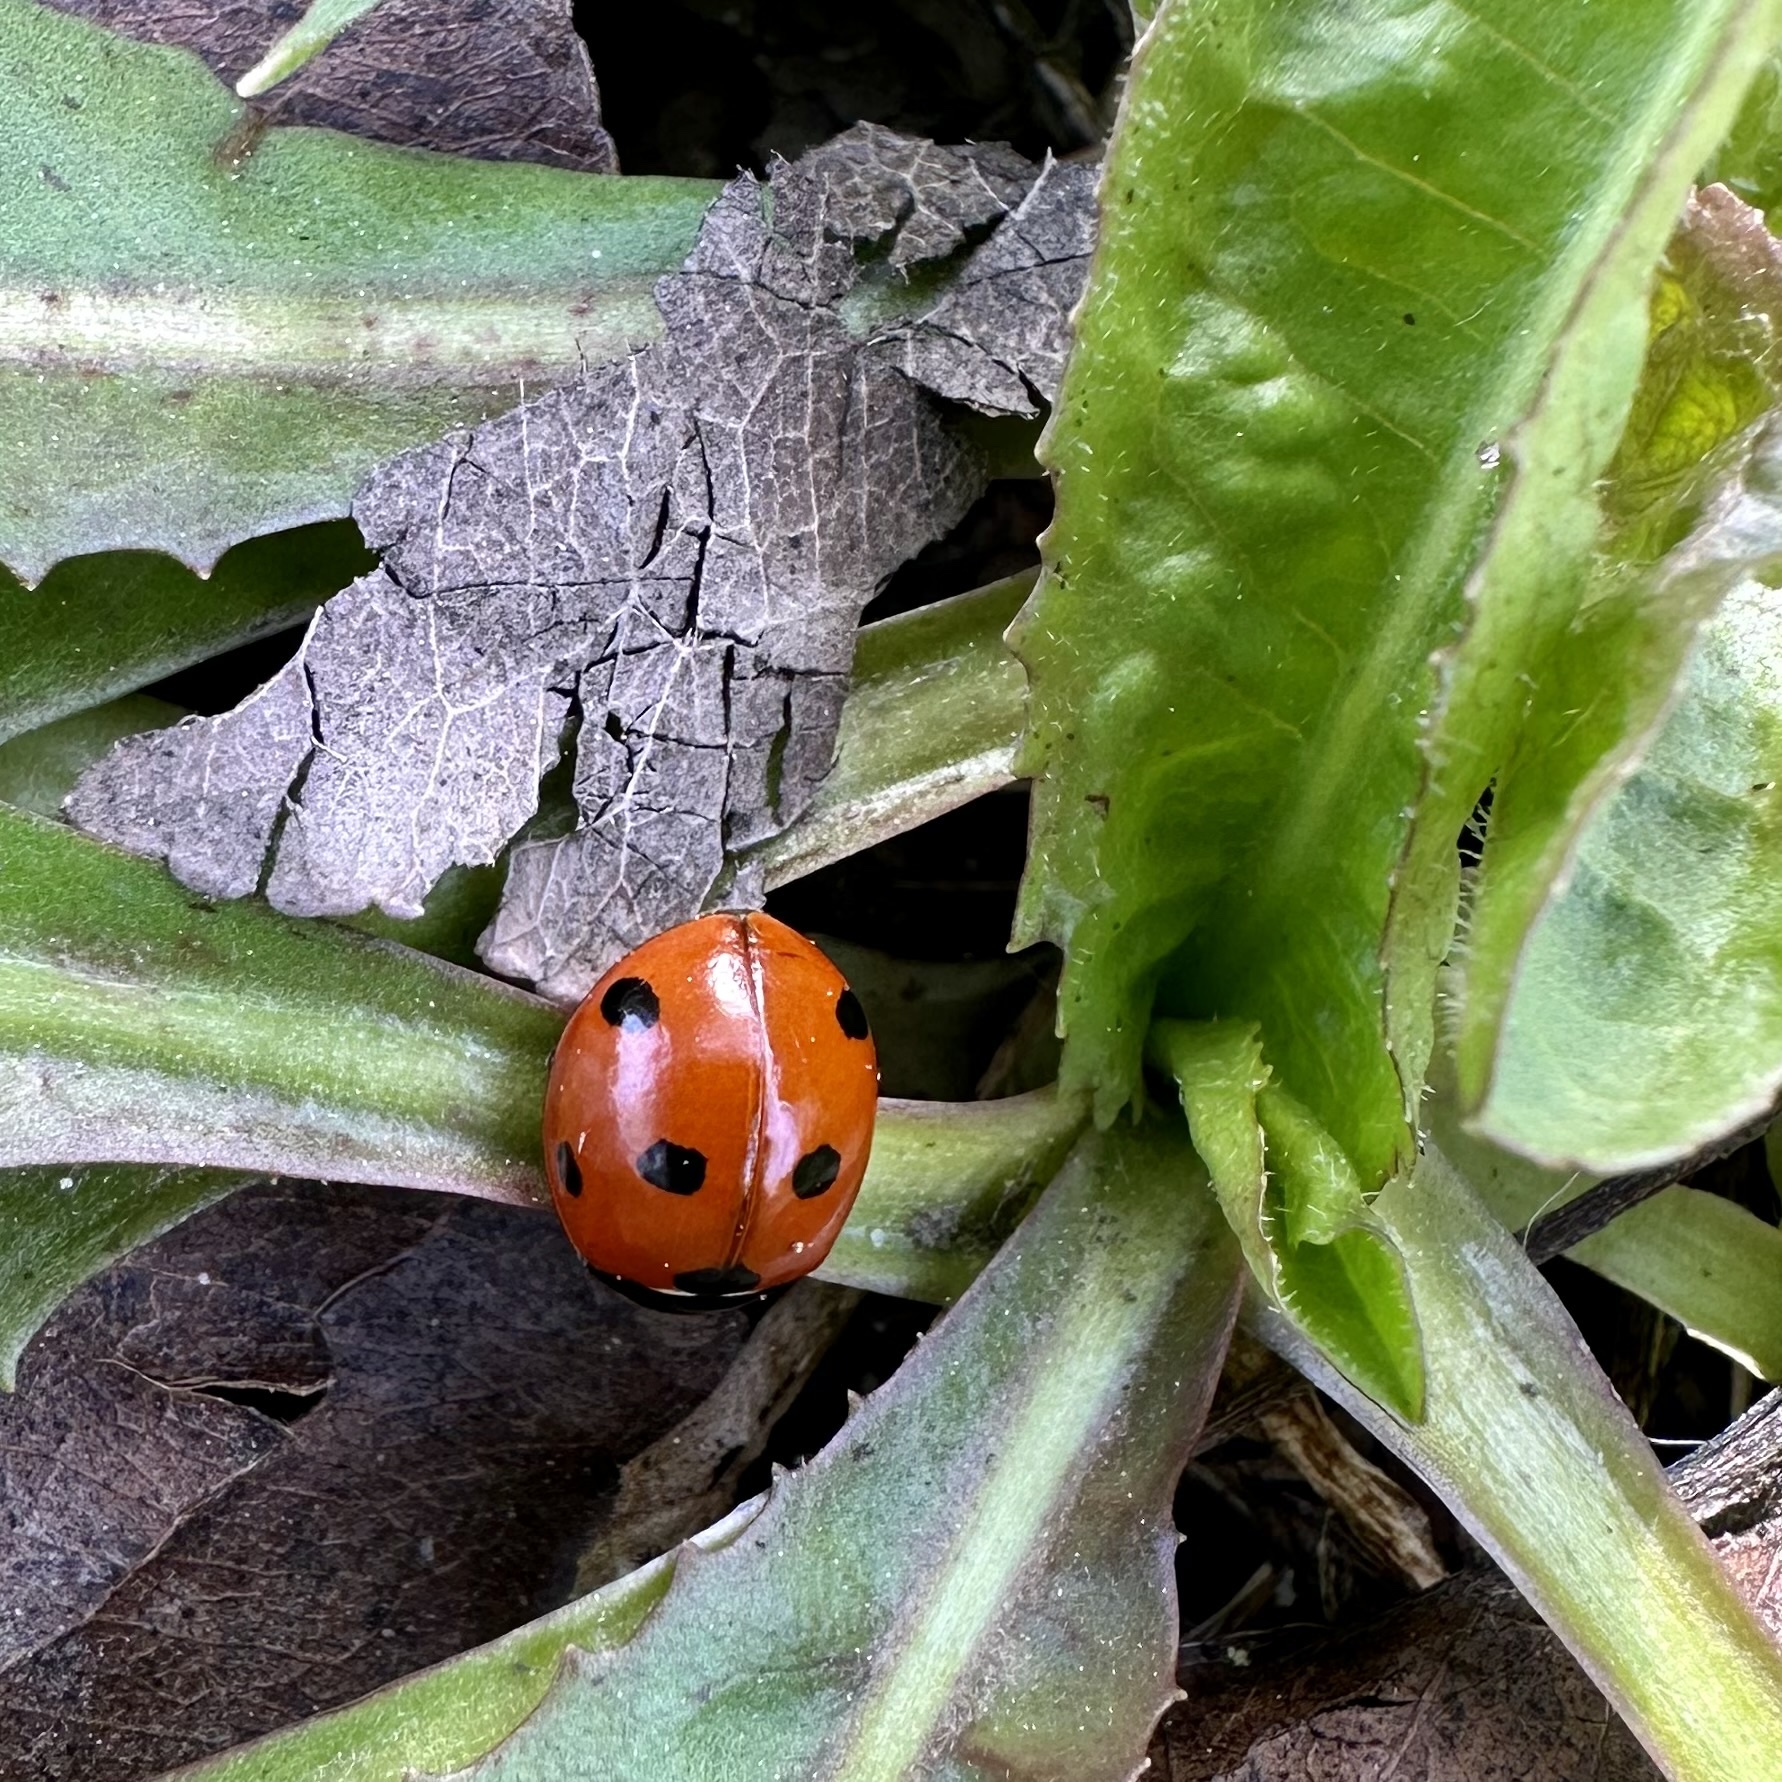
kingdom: Animalia
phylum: Arthropoda
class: Insecta
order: Coleoptera
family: Coccinellidae
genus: Coccinella
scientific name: Coccinella septempunctata
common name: Sevenspotted lady beetle
